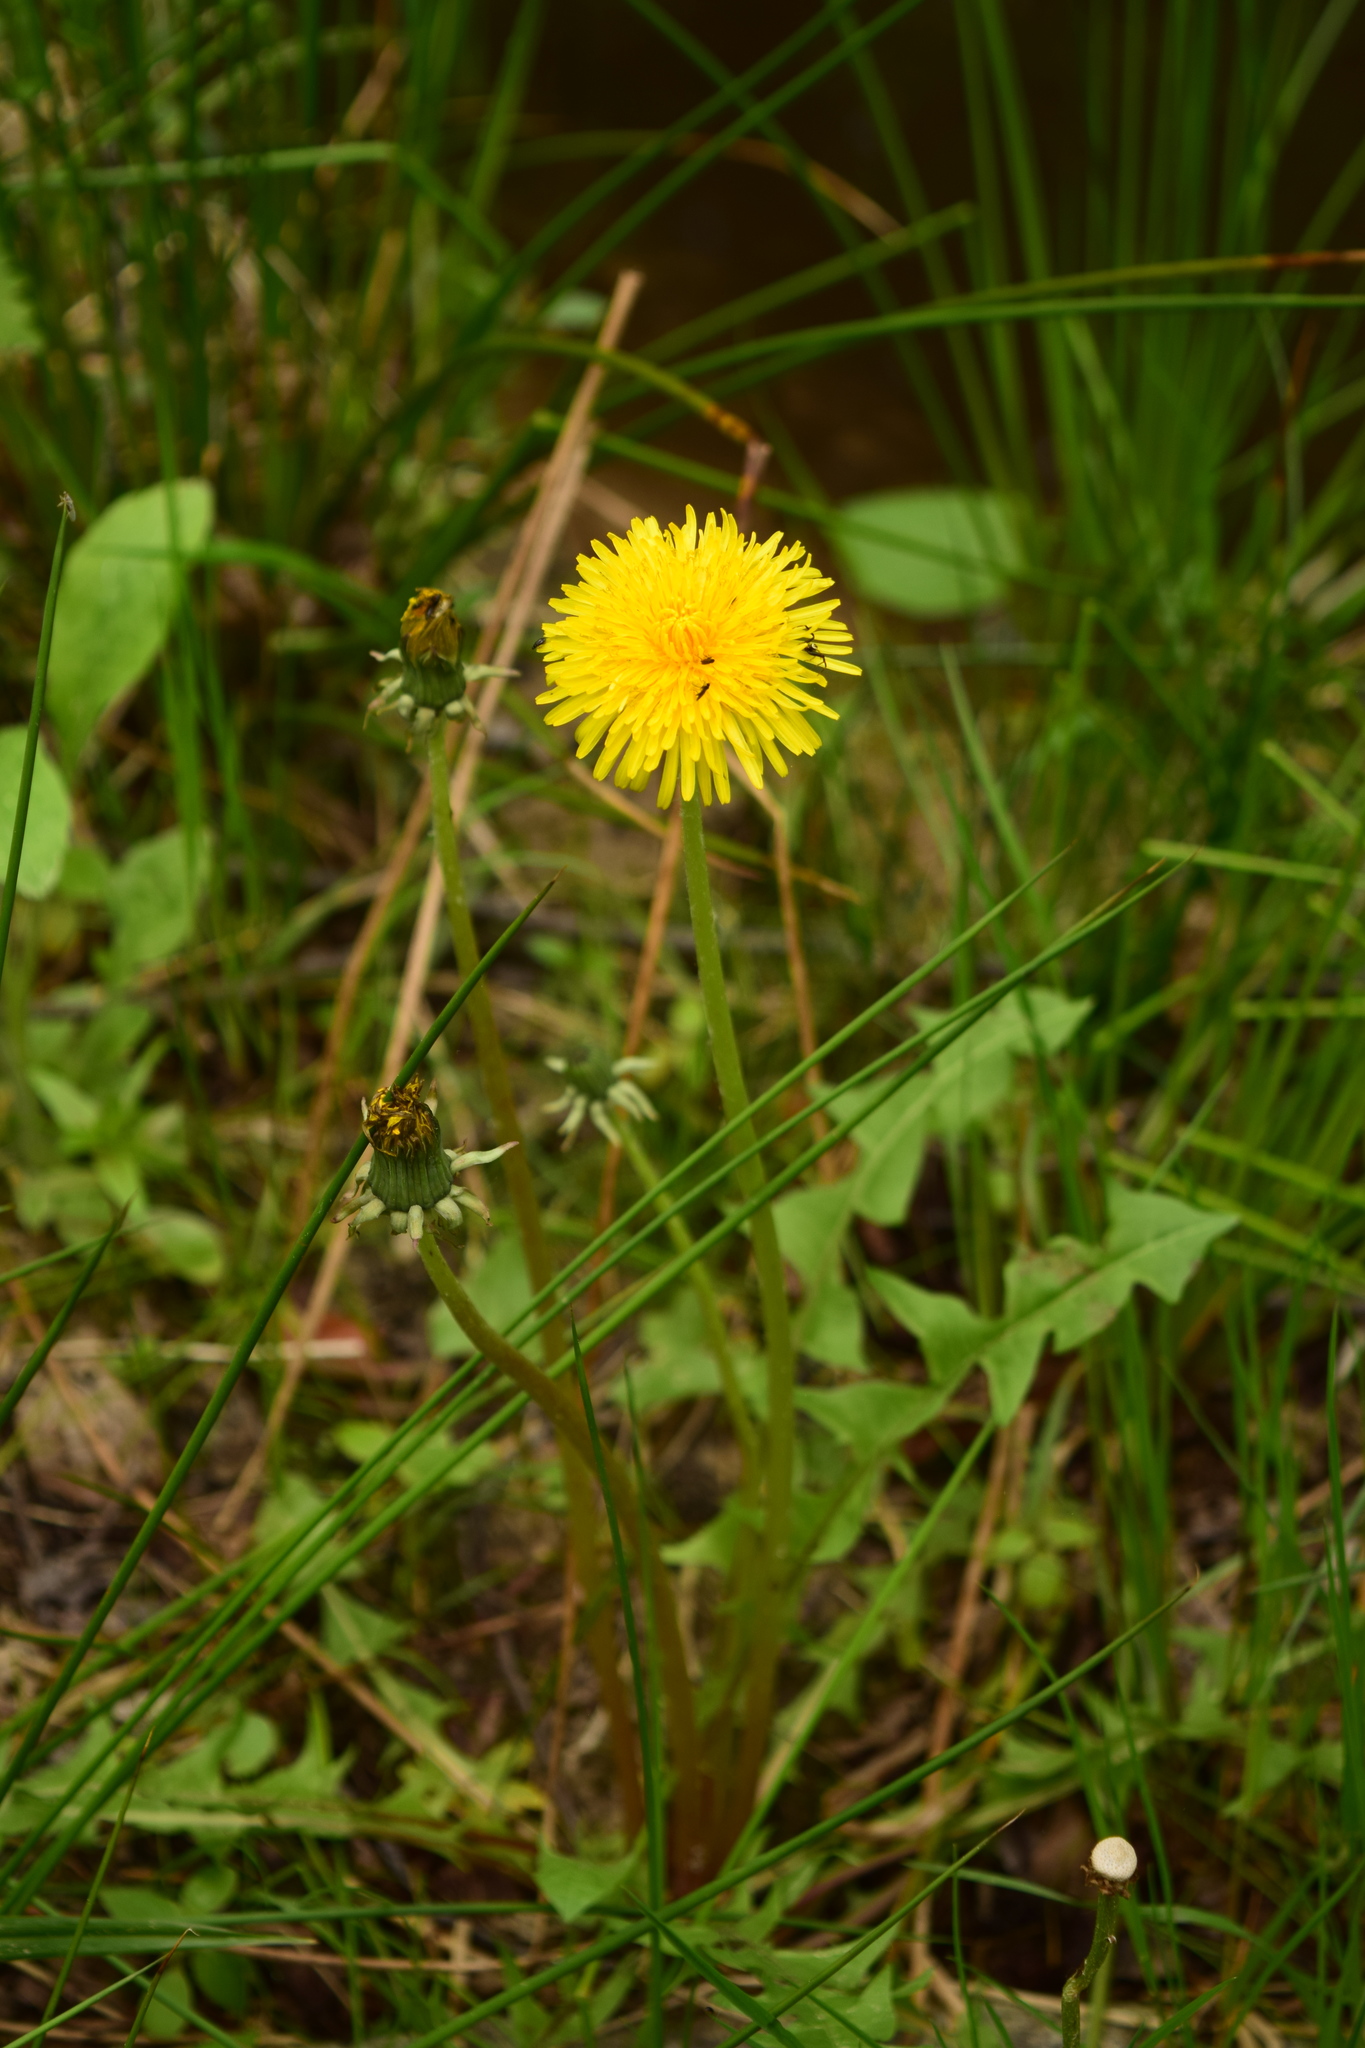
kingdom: Plantae
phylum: Tracheophyta
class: Magnoliopsida
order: Asterales
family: Asteraceae
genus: Taraxacum
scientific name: Taraxacum officinale
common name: Common dandelion
